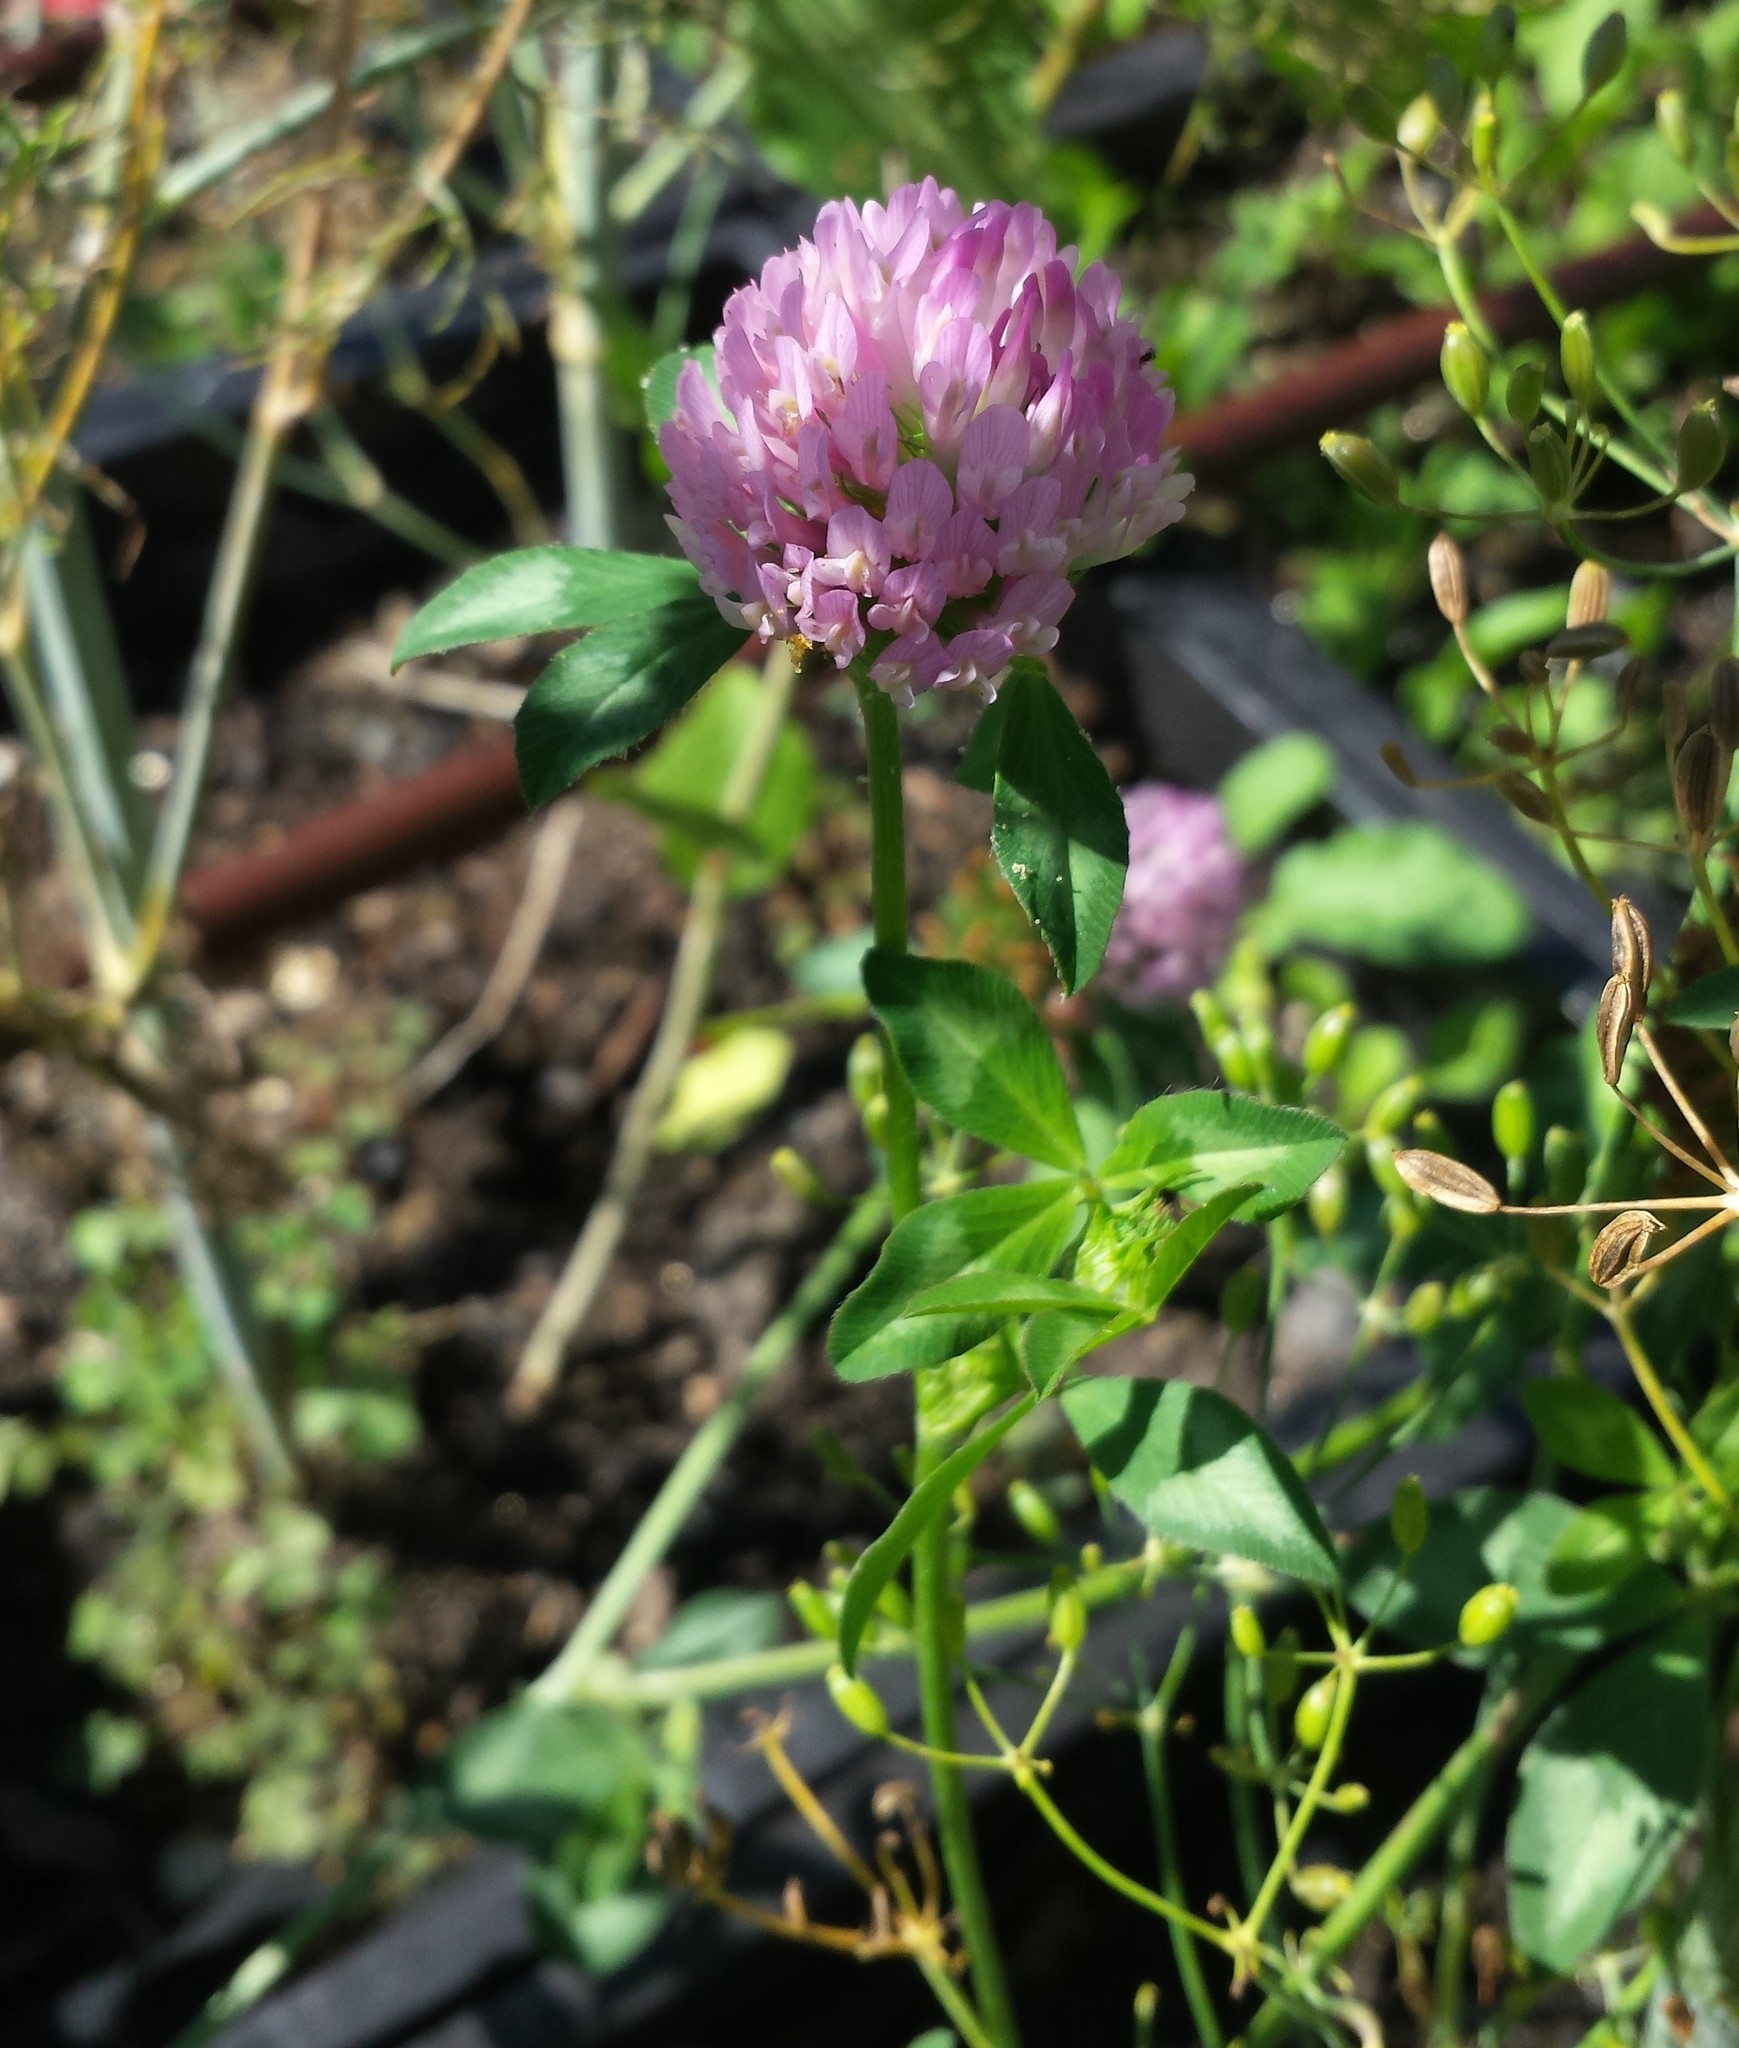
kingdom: Plantae
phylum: Tracheophyta
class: Magnoliopsida
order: Fabales
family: Fabaceae
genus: Trifolium
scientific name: Trifolium pratense
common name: Red clover
